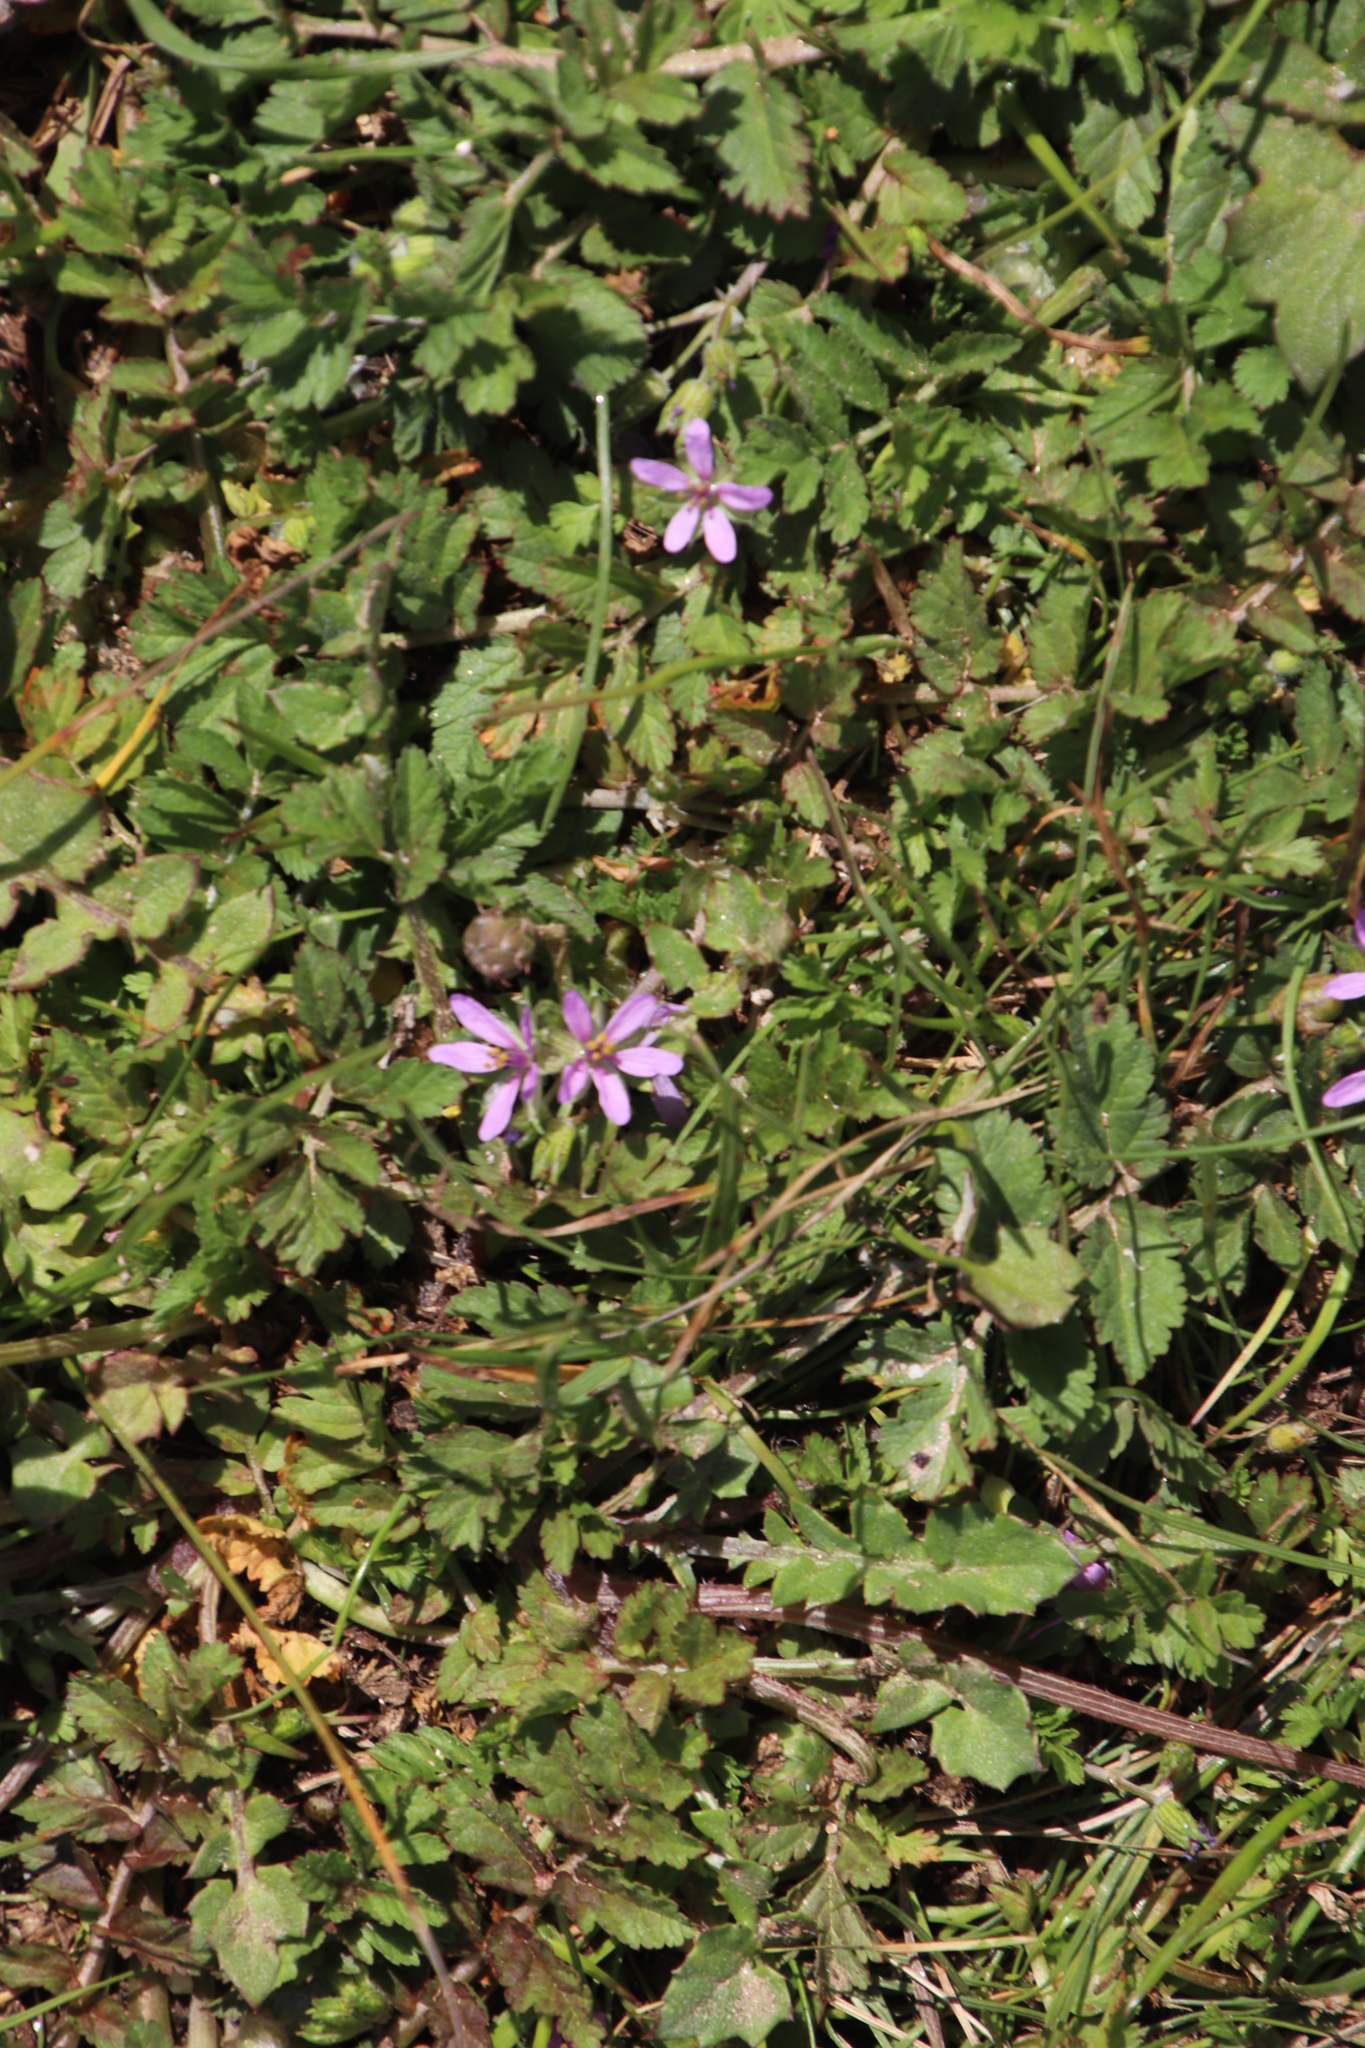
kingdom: Plantae
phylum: Tracheophyta
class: Magnoliopsida
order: Geraniales
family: Geraniaceae
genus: Erodium
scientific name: Erodium moschatum
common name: Musk stork's-bill
